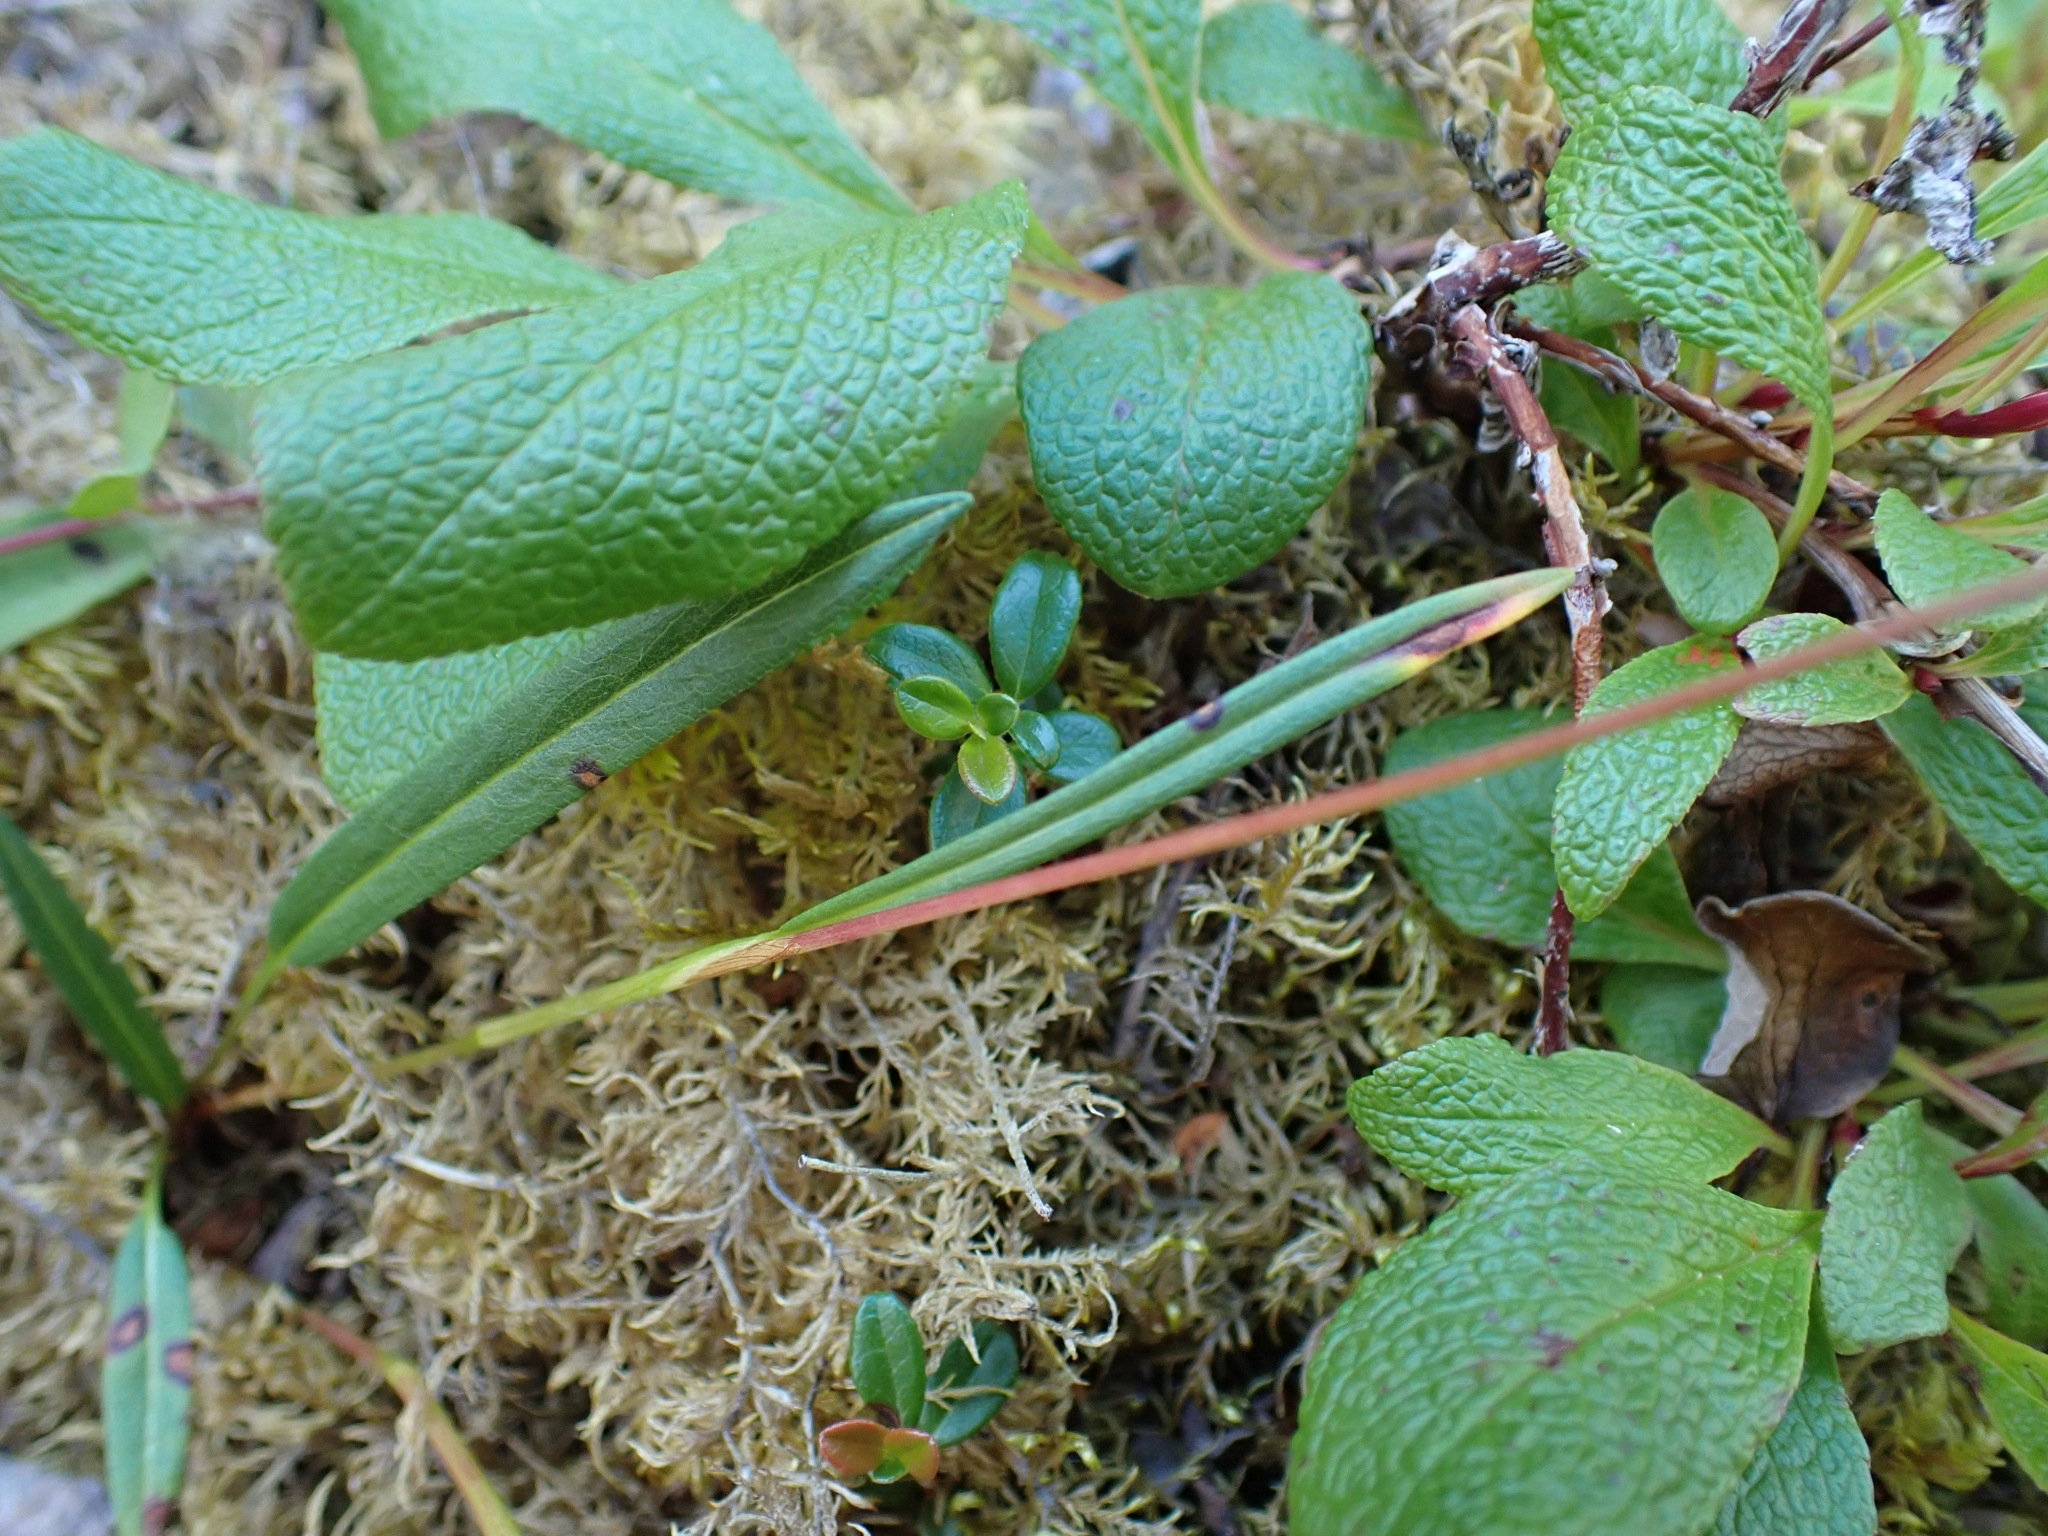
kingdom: Plantae
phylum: Tracheophyta
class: Magnoliopsida
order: Caryophyllales
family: Polygonaceae
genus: Bistorta
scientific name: Bistorta vivipara
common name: Alpine bistort
